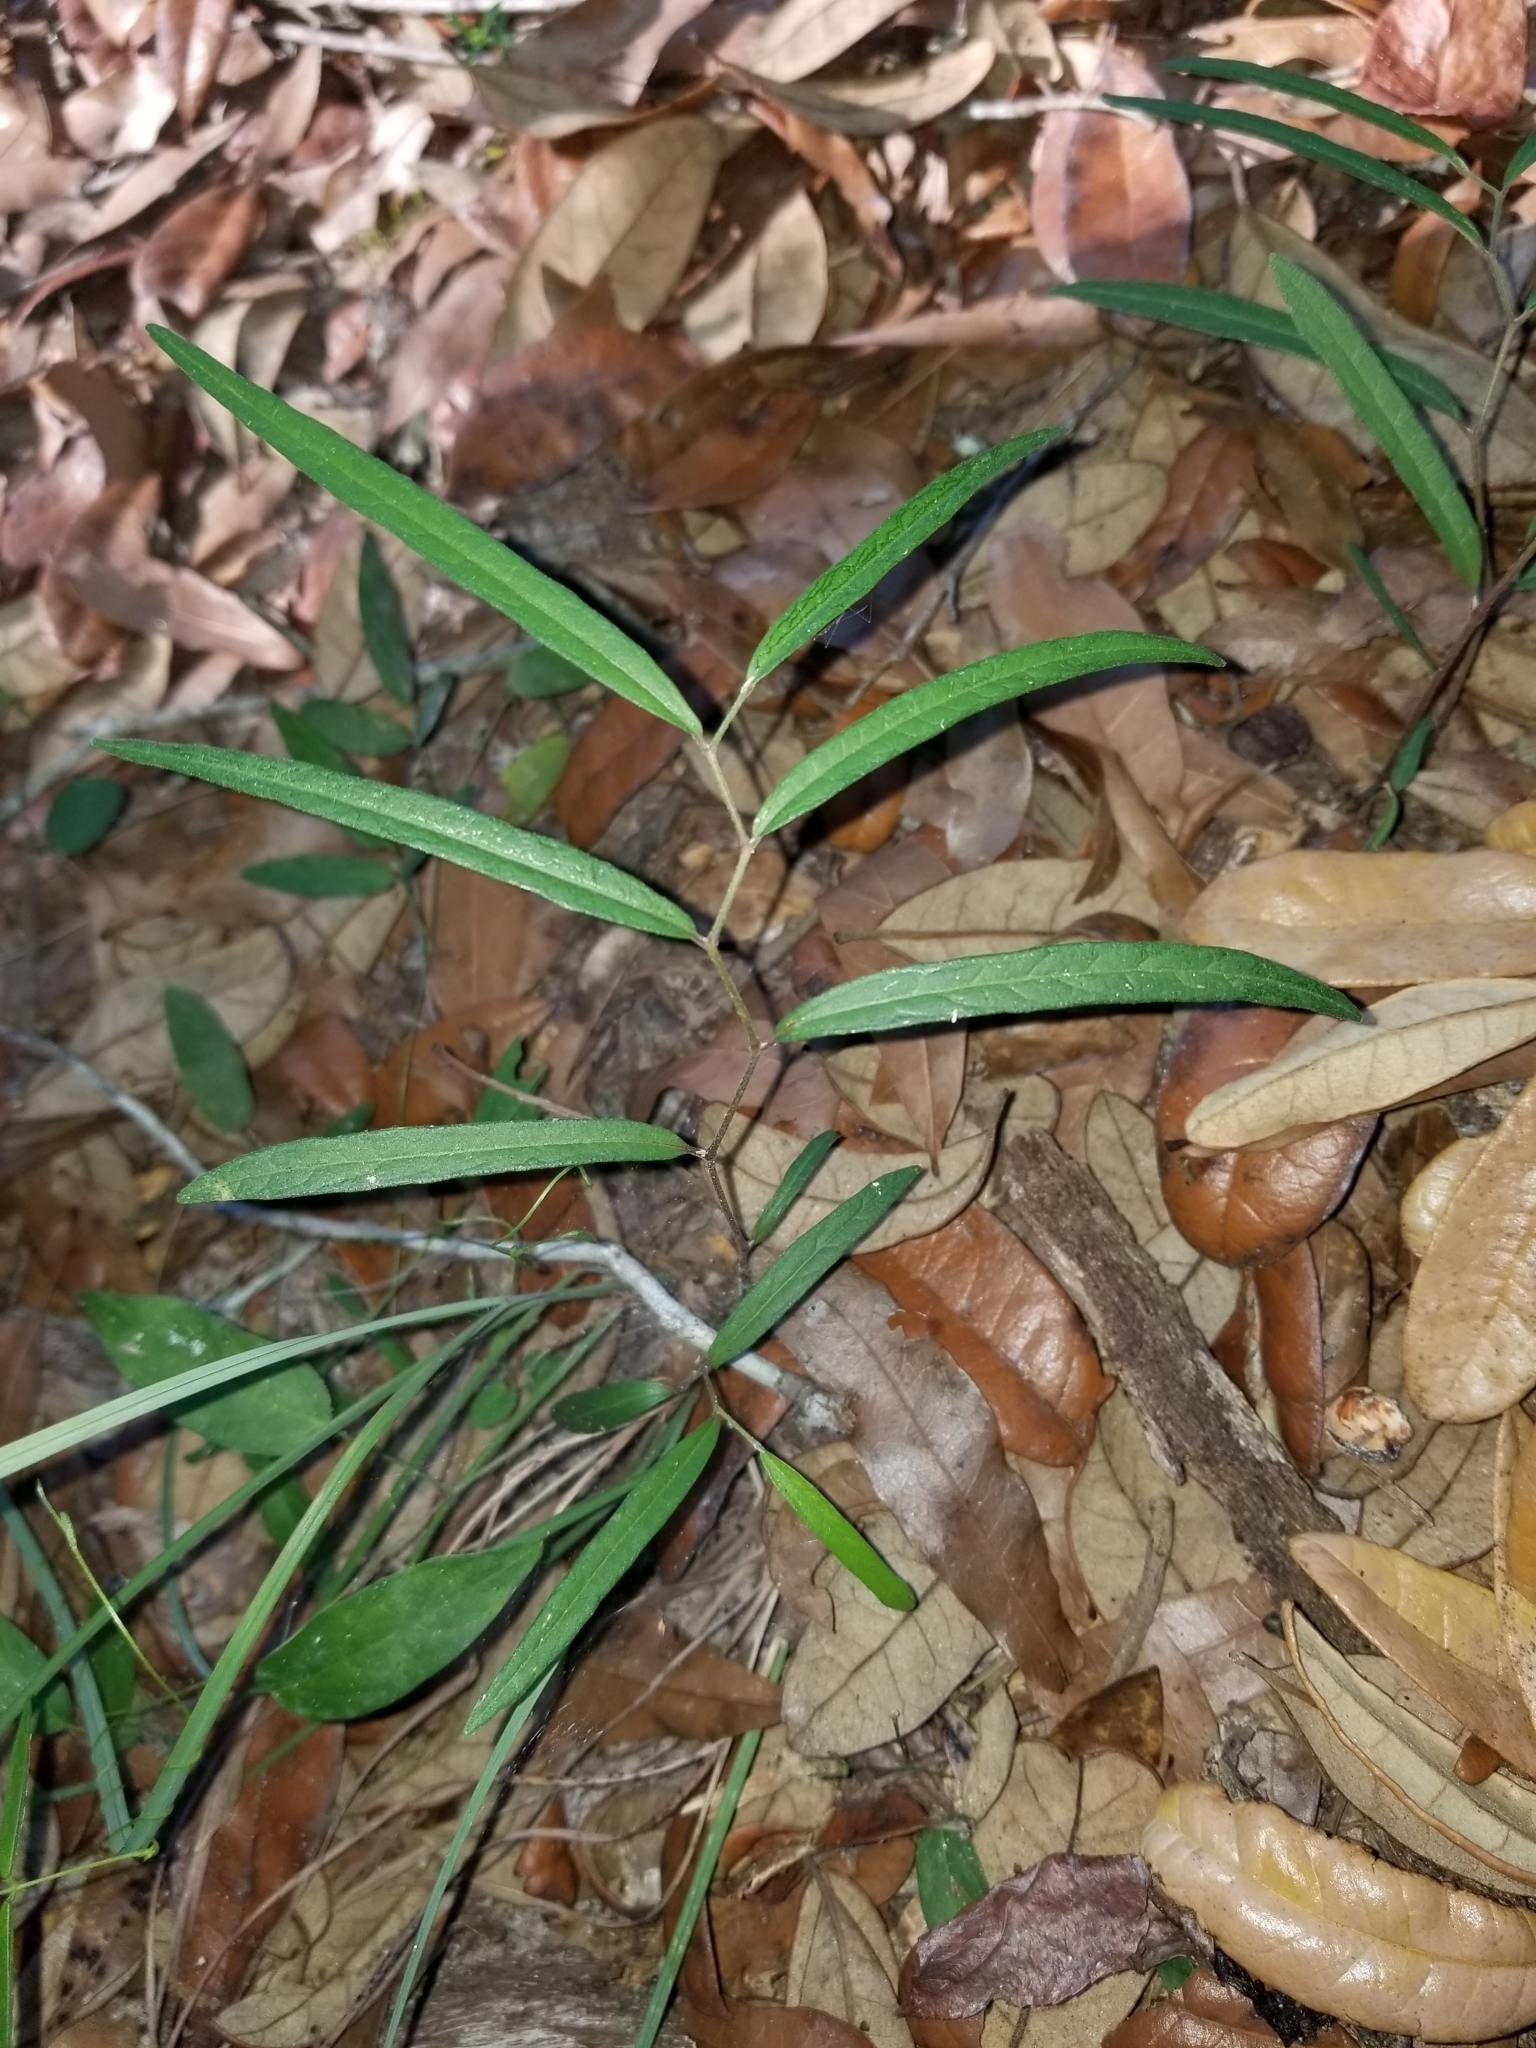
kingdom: Plantae
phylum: Tracheophyta
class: Magnoliopsida
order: Piperales
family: Aristolochiaceae
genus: Endodeca
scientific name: Endodeca serpentaria
